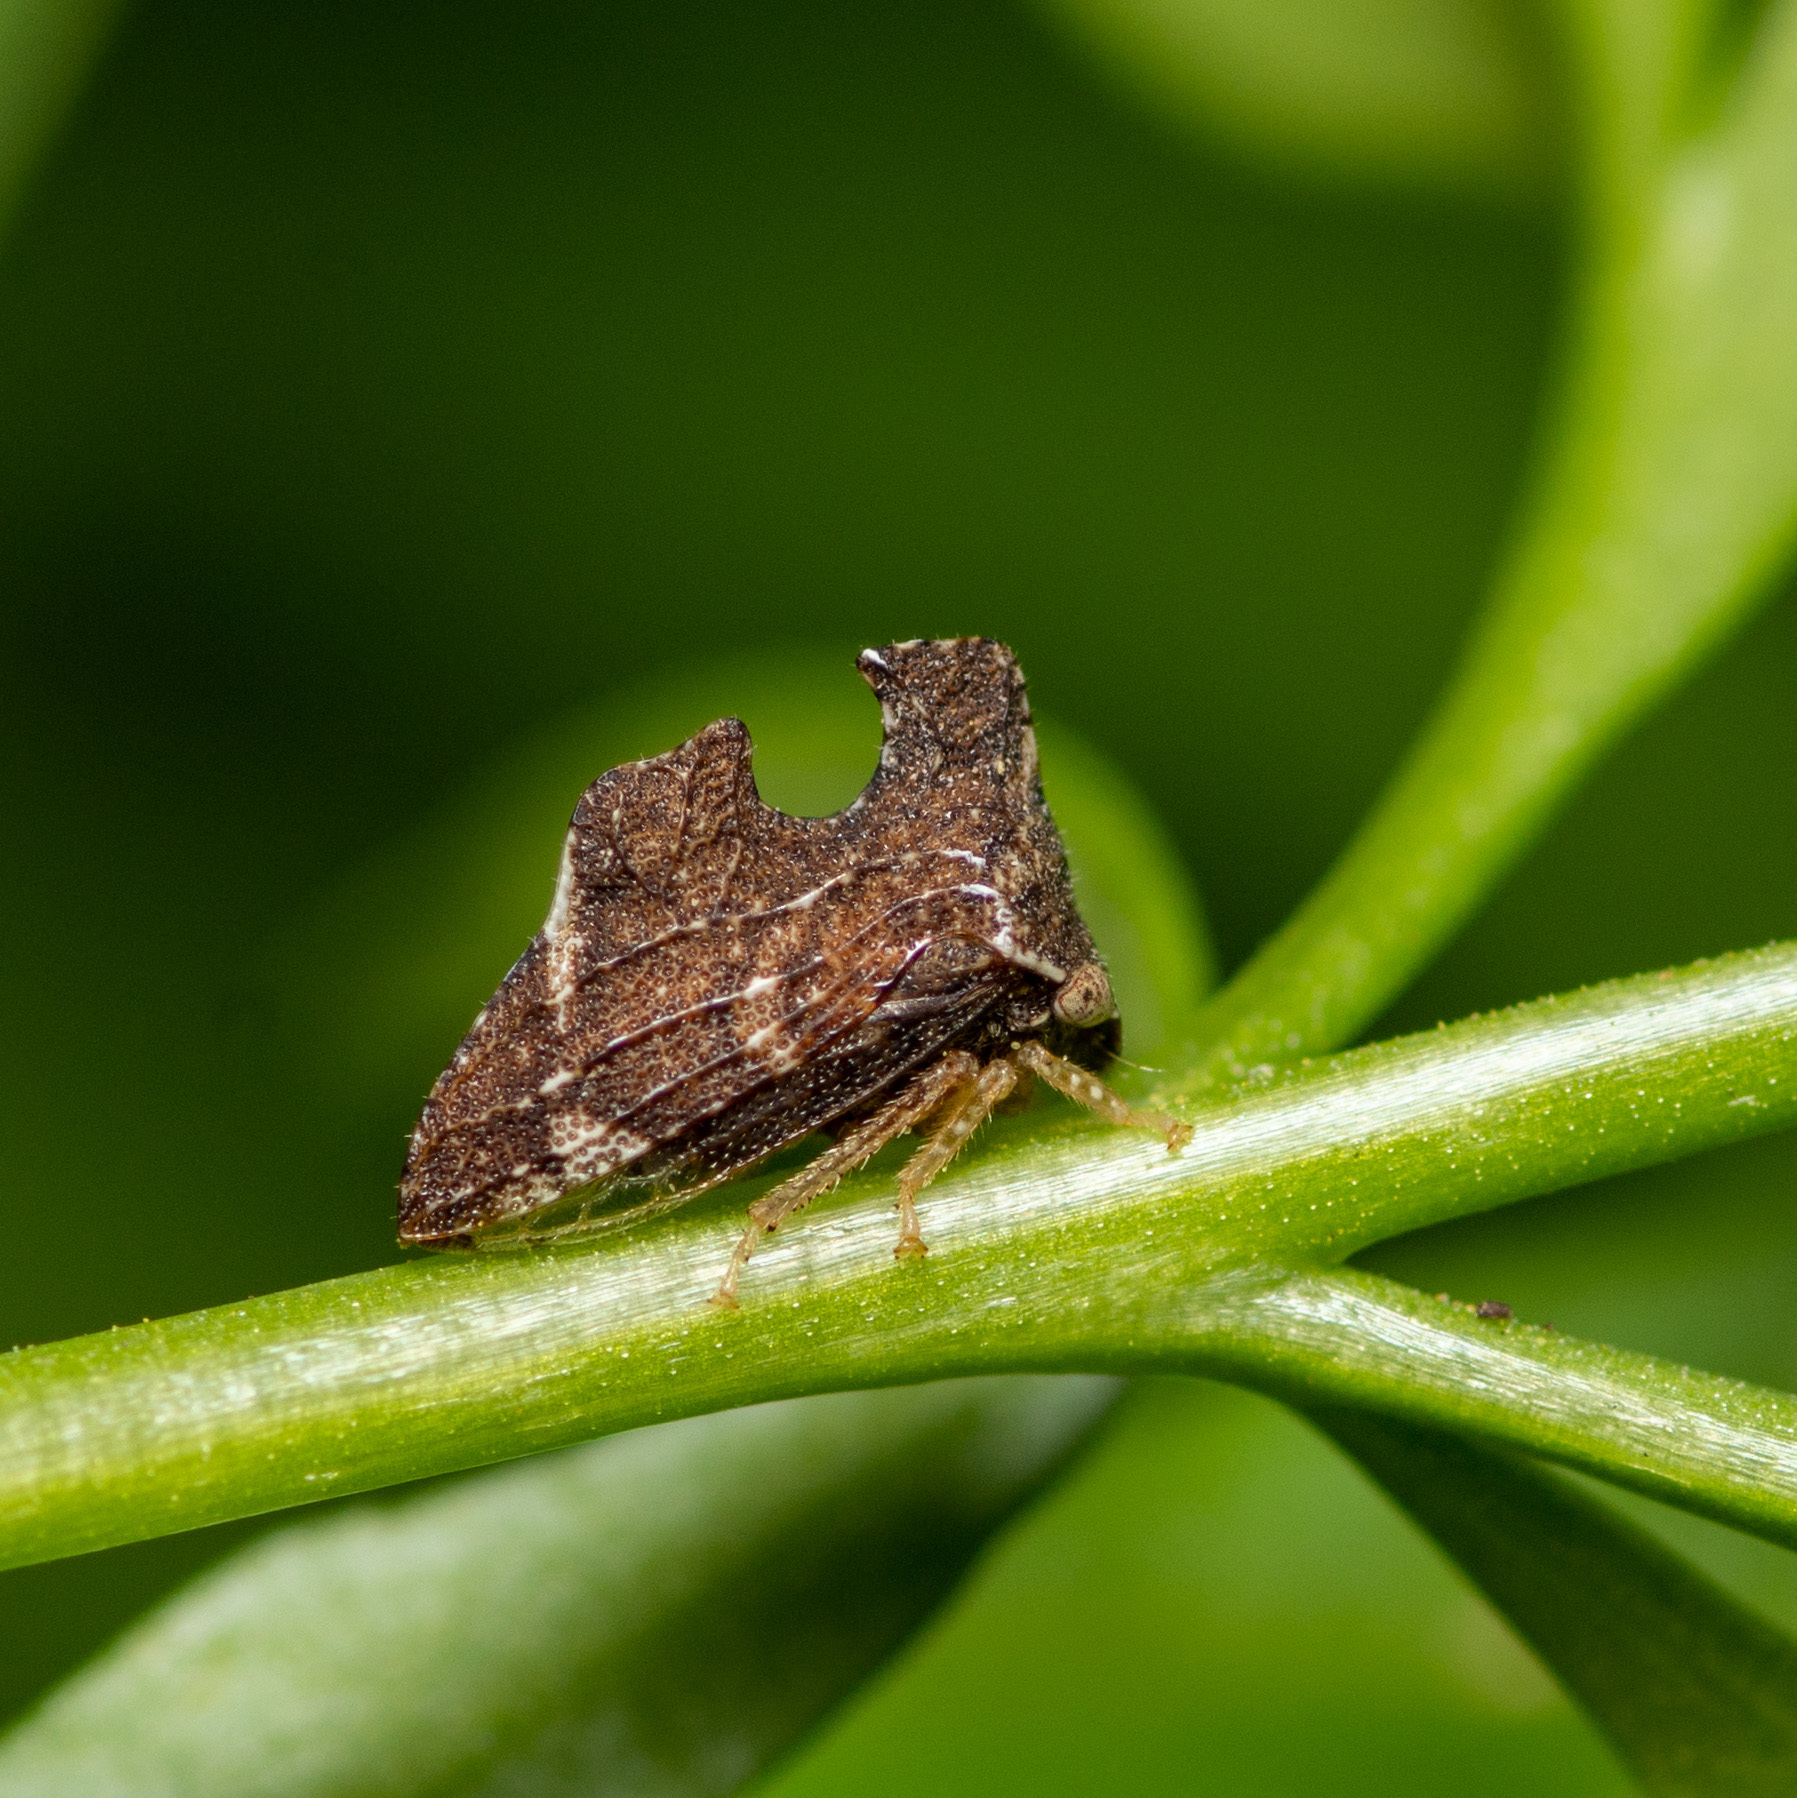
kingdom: Animalia
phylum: Arthropoda
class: Insecta
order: Hemiptera
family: Membracidae
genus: Entylia
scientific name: Entylia carinata
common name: Keeled treehopper
